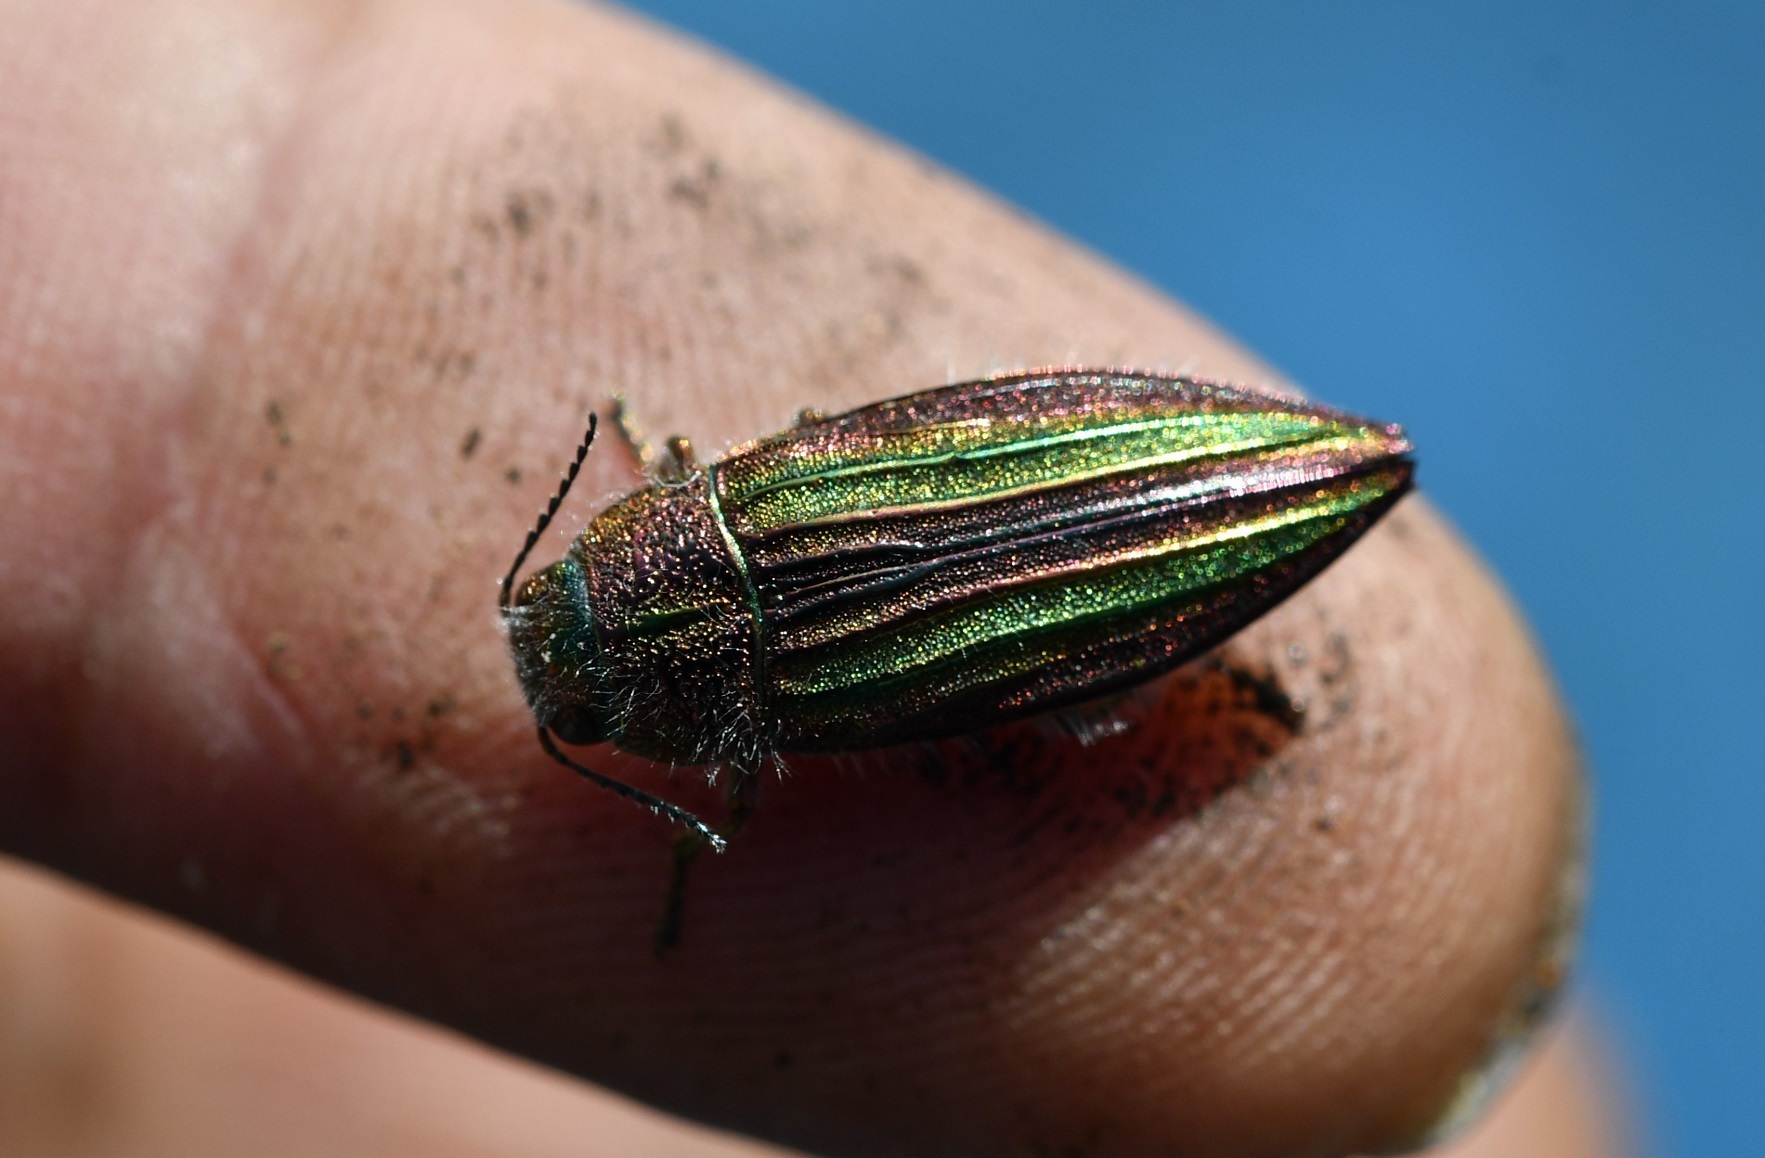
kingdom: Animalia
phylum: Arthropoda
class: Insecta
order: Coleoptera
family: Buprestidae
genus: Buprestis
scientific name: Buprestis piliventris
